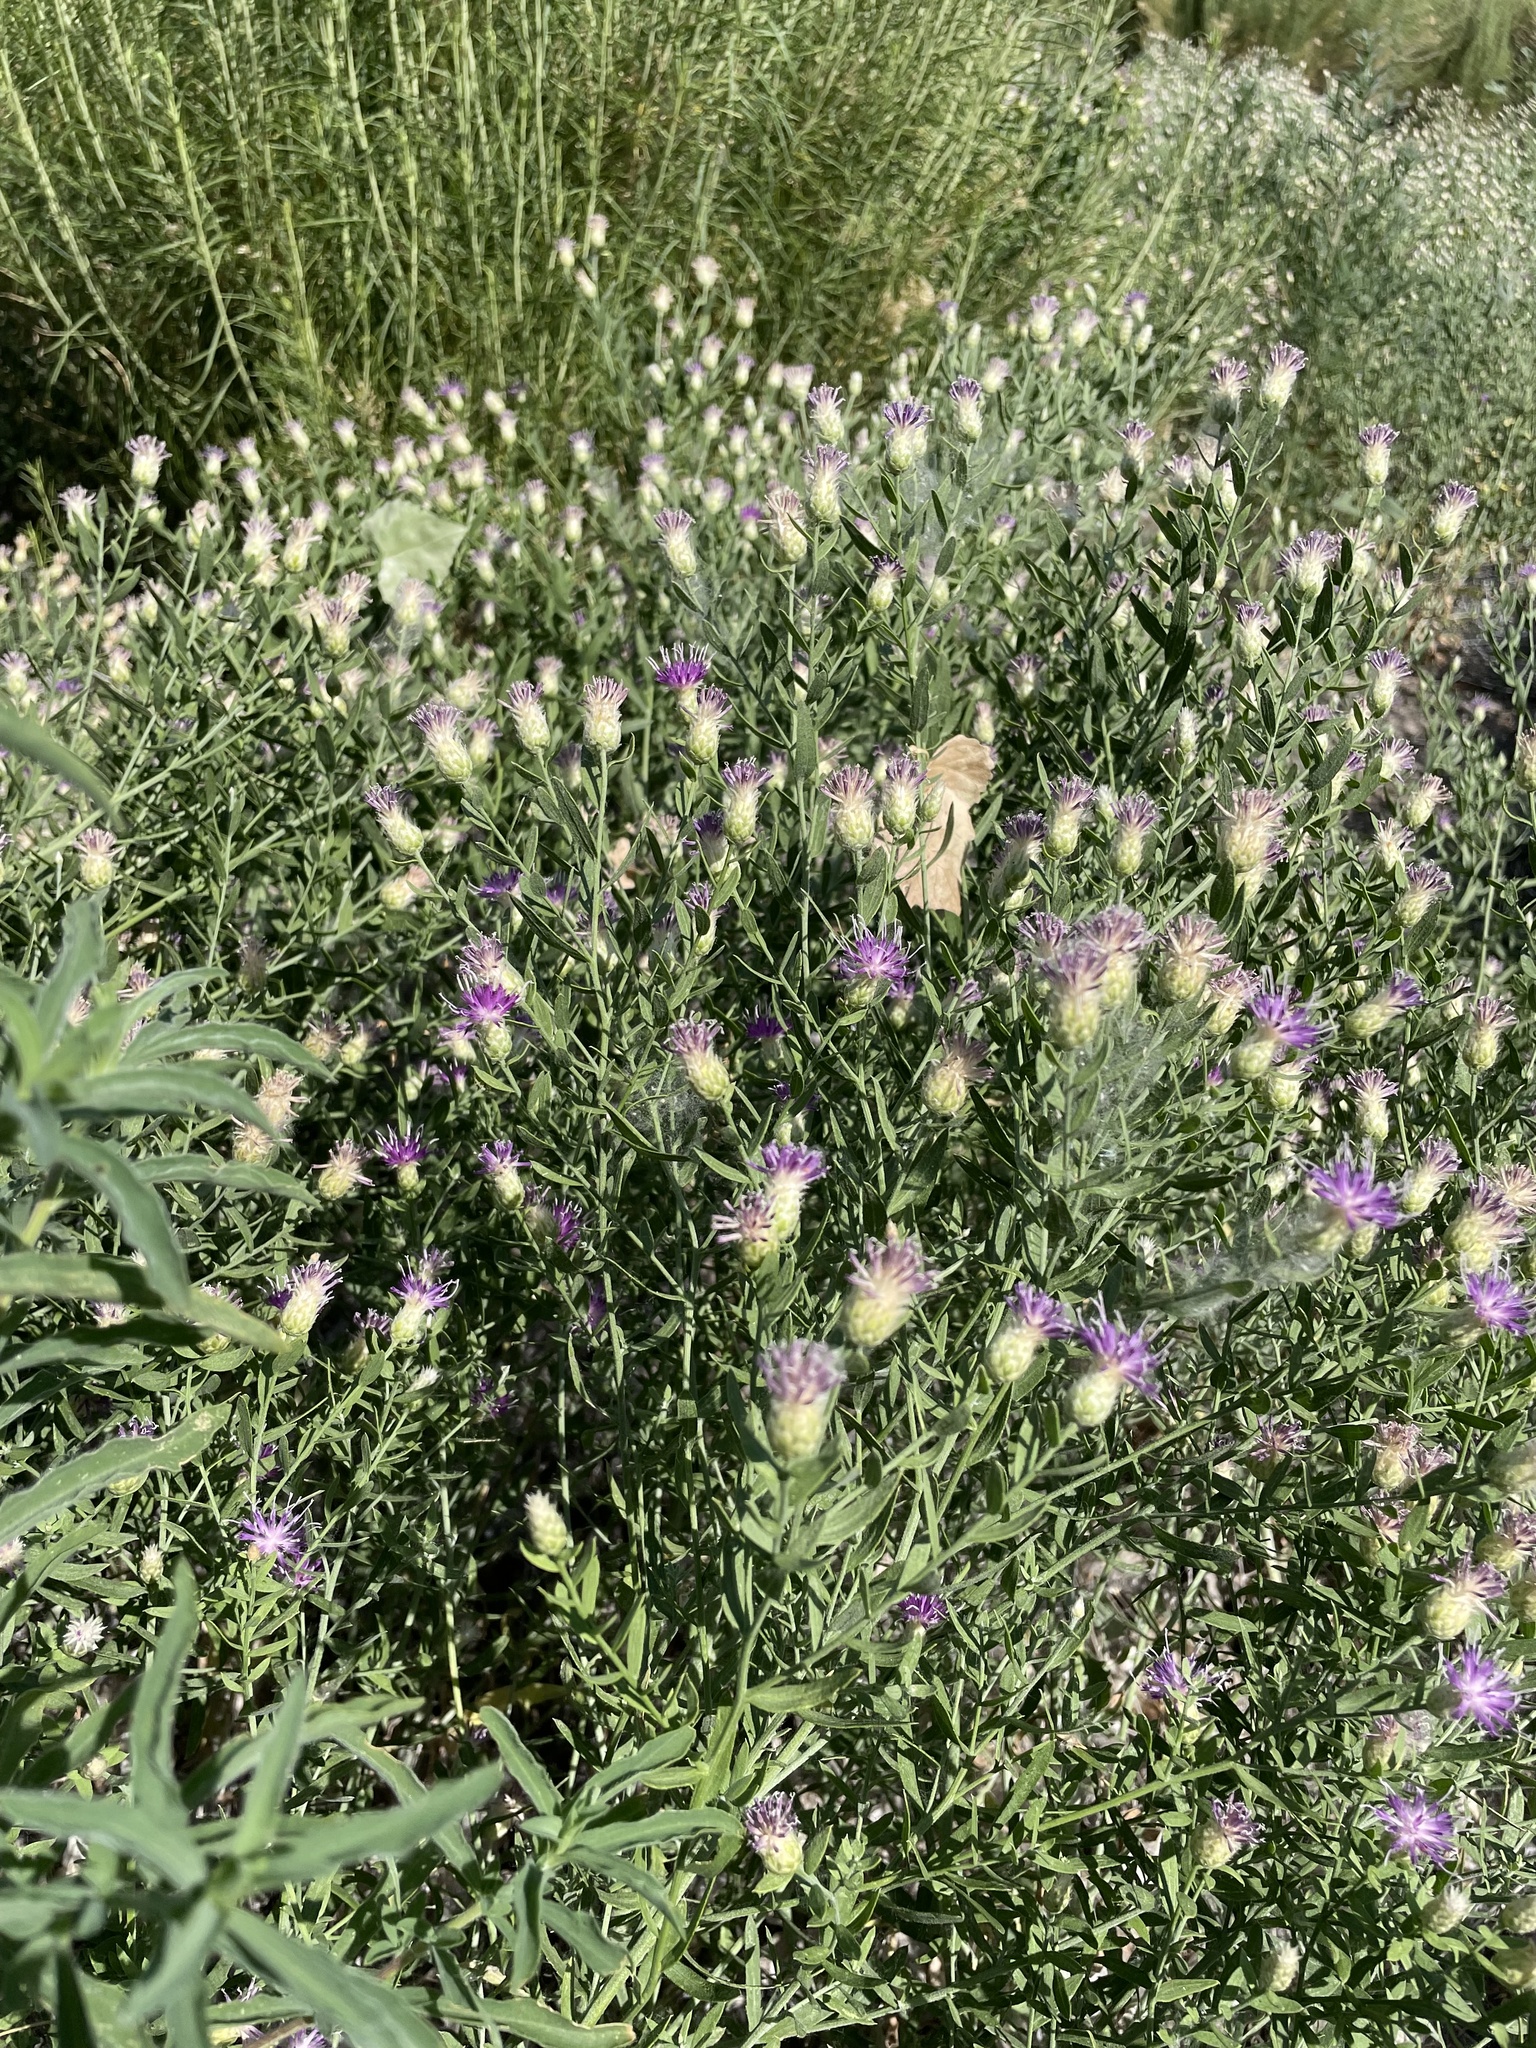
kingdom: Plantae
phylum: Tracheophyta
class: Magnoliopsida
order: Asterales
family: Asteraceae
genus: Leuzea
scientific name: Leuzea repens
